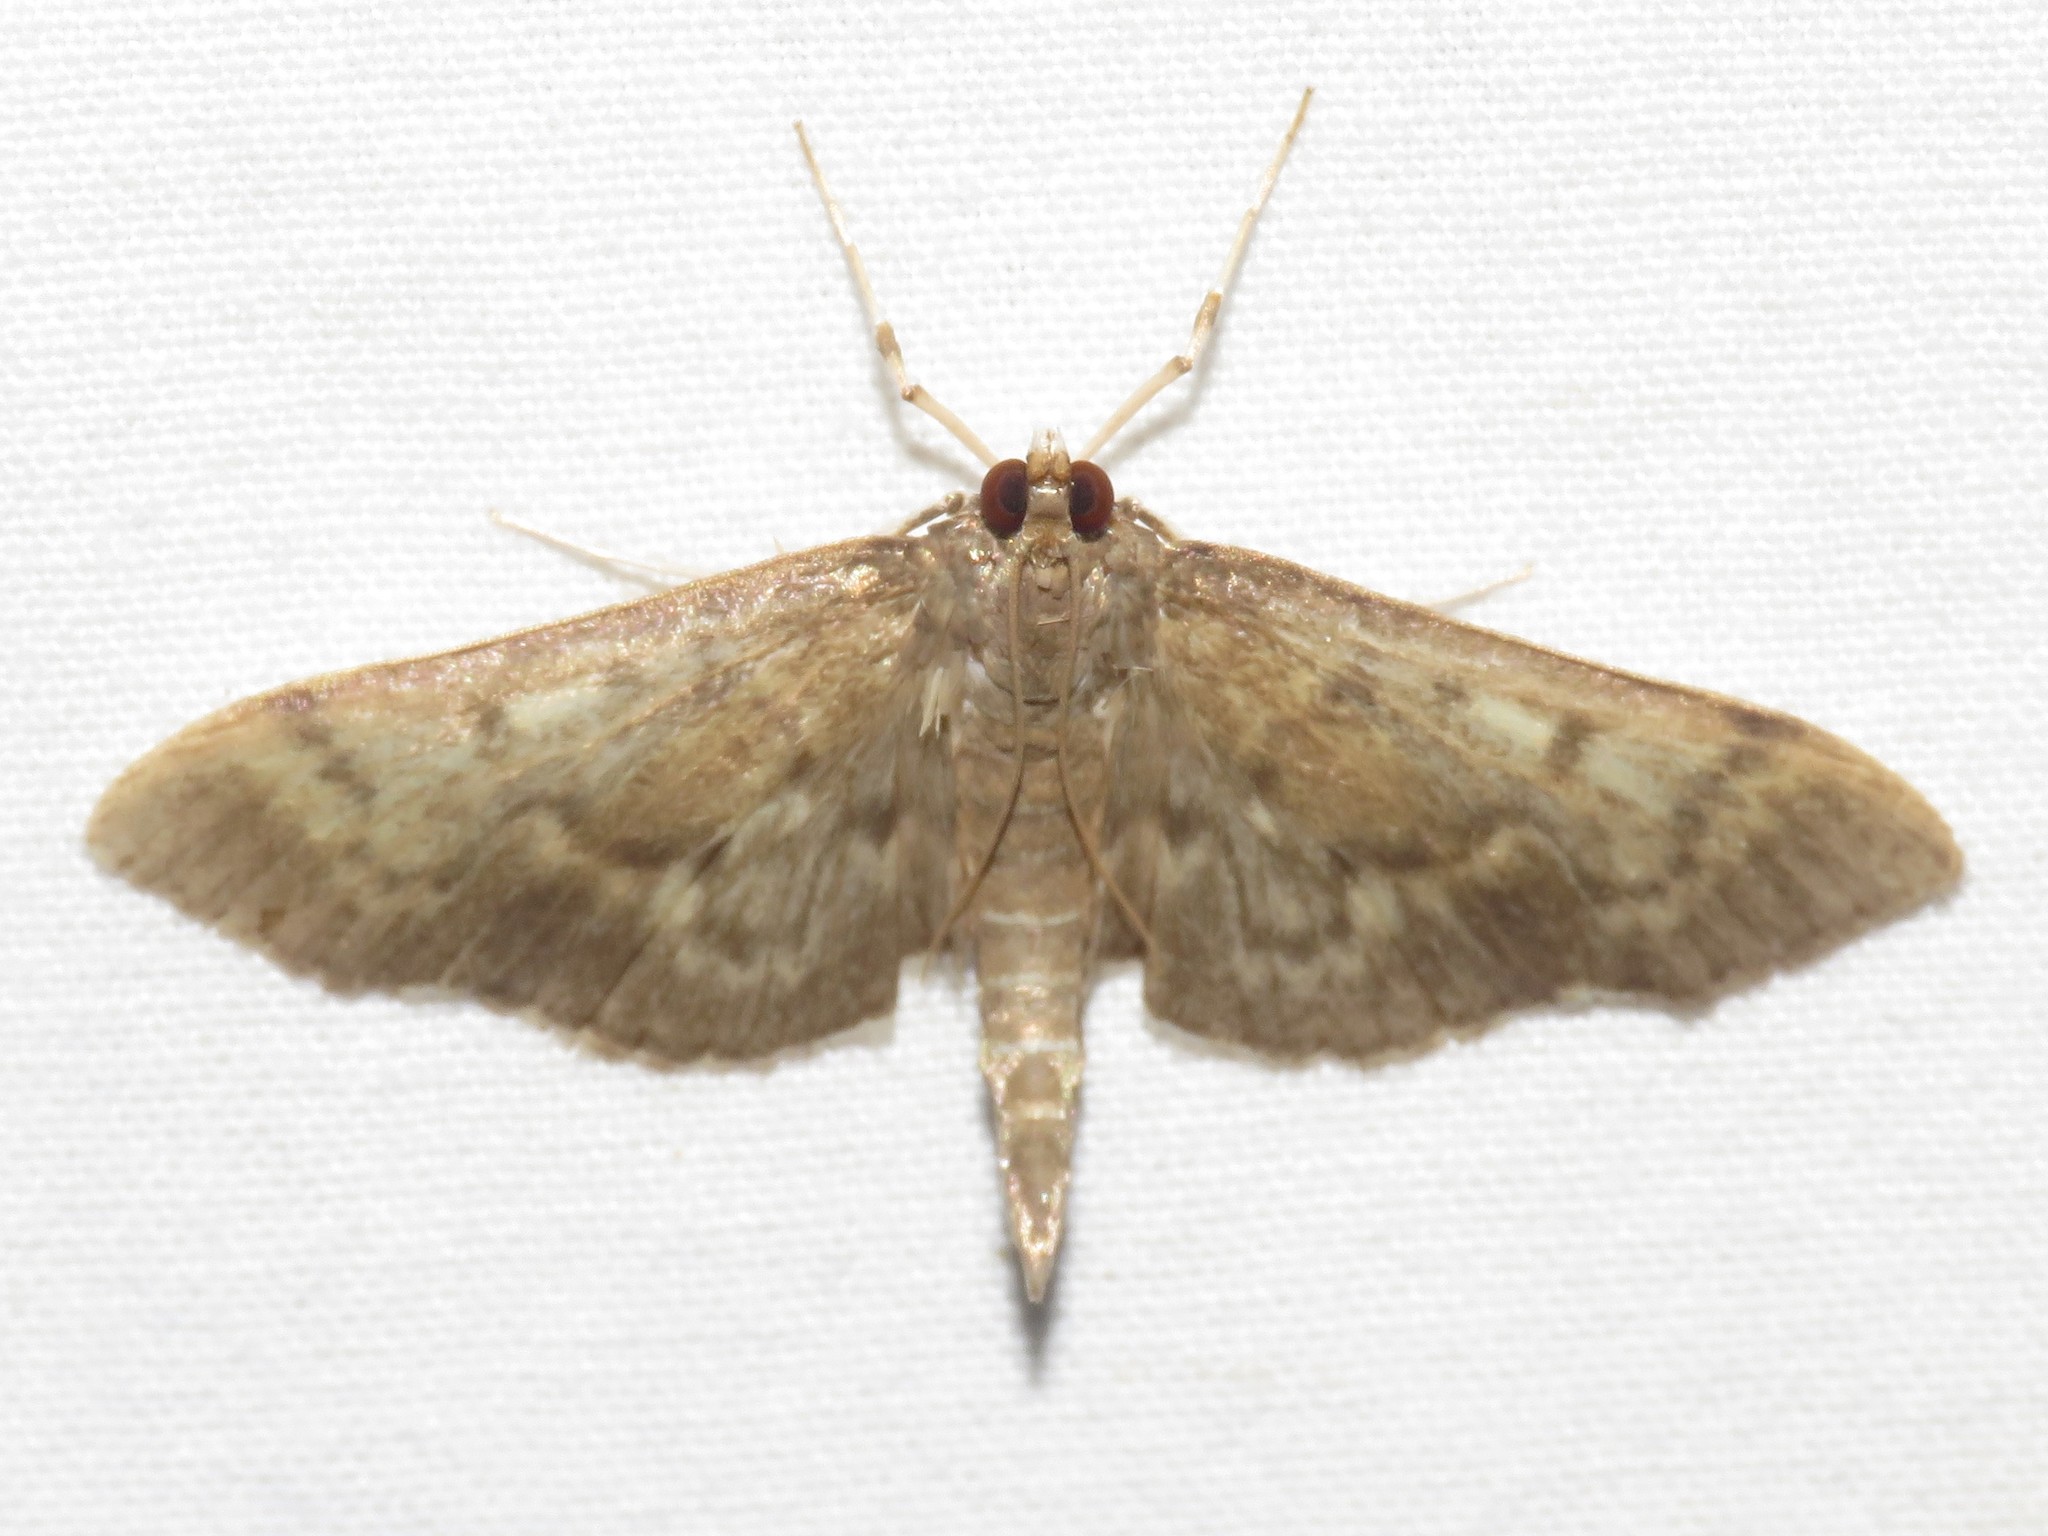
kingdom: Animalia
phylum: Arthropoda
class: Insecta
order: Lepidoptera
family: Crambidae
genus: Herpetogramma
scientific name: Herpetogramma aeglealis
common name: Serpentine webworm moth
